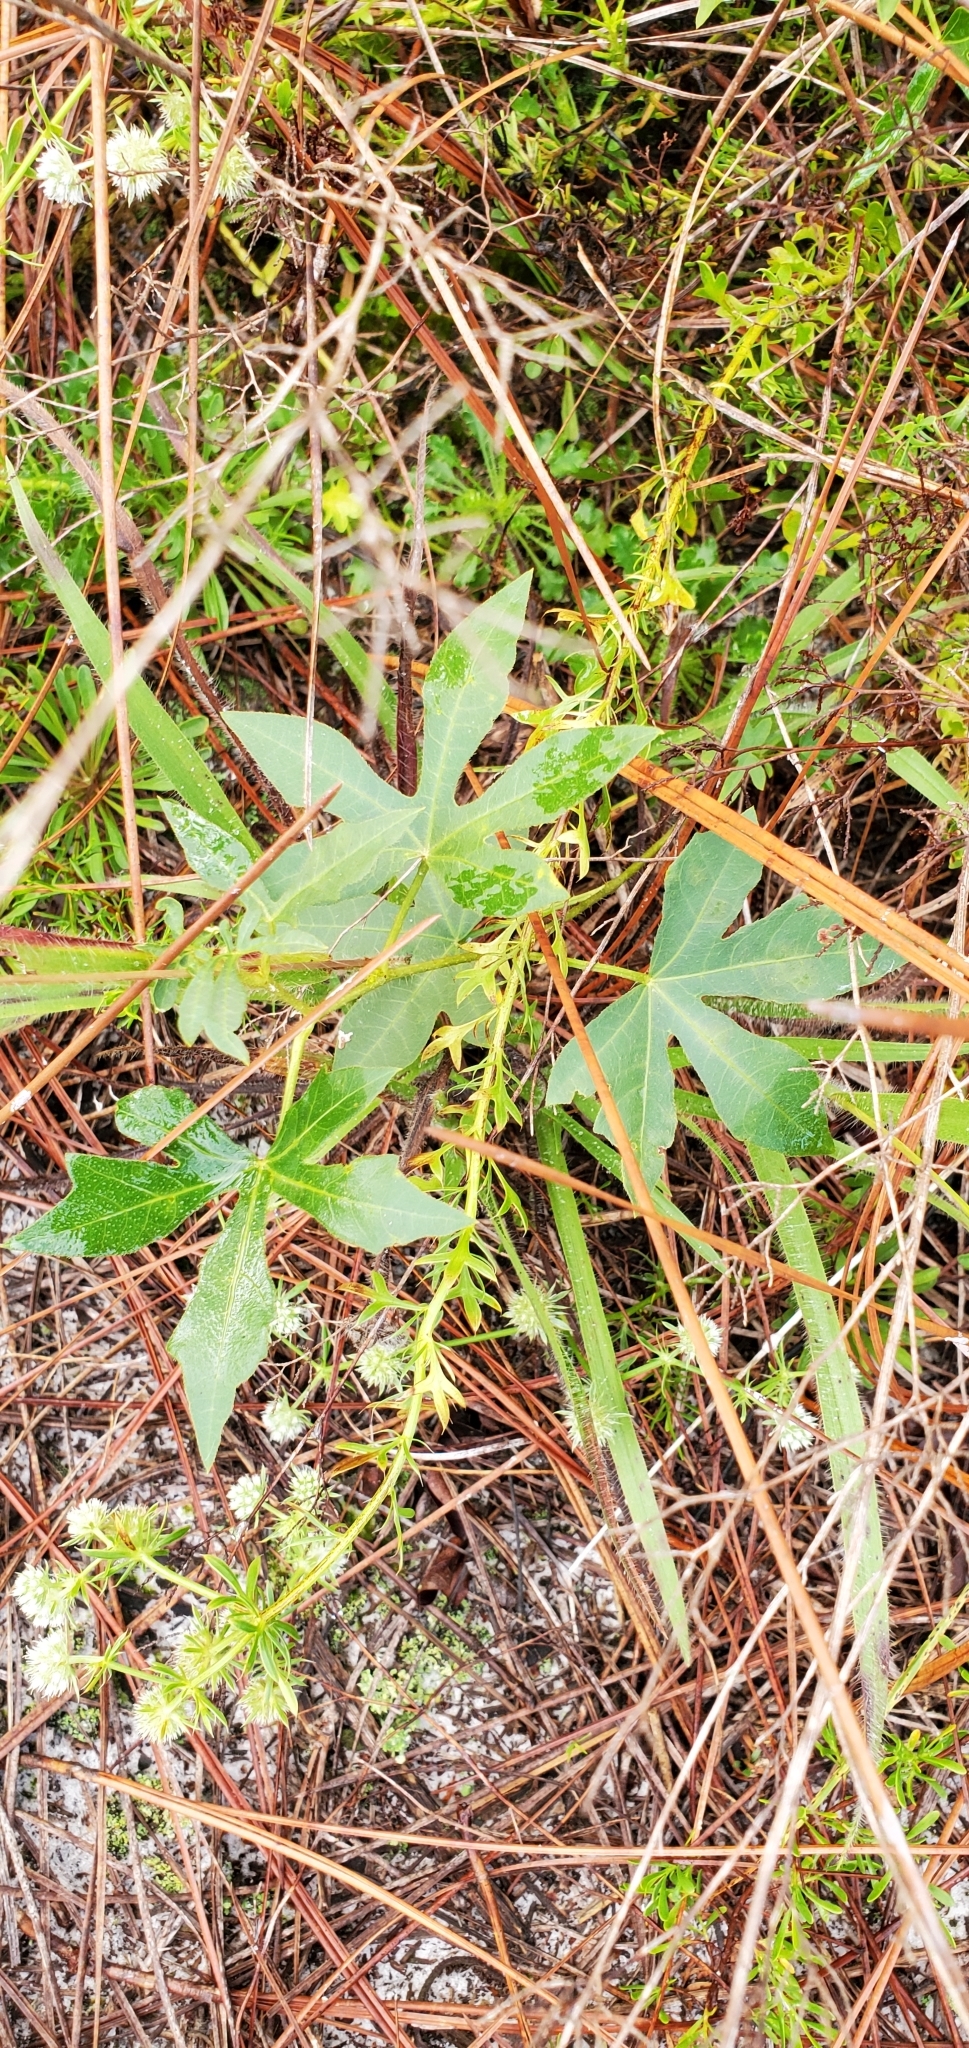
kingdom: Plantae
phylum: Tracheophyta
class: Magnoliopsida
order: Malpighiales
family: Euphorbiaceae
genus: Cnidoscolus
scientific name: Cnidoscolus stimulosus
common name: Bull-nettle
